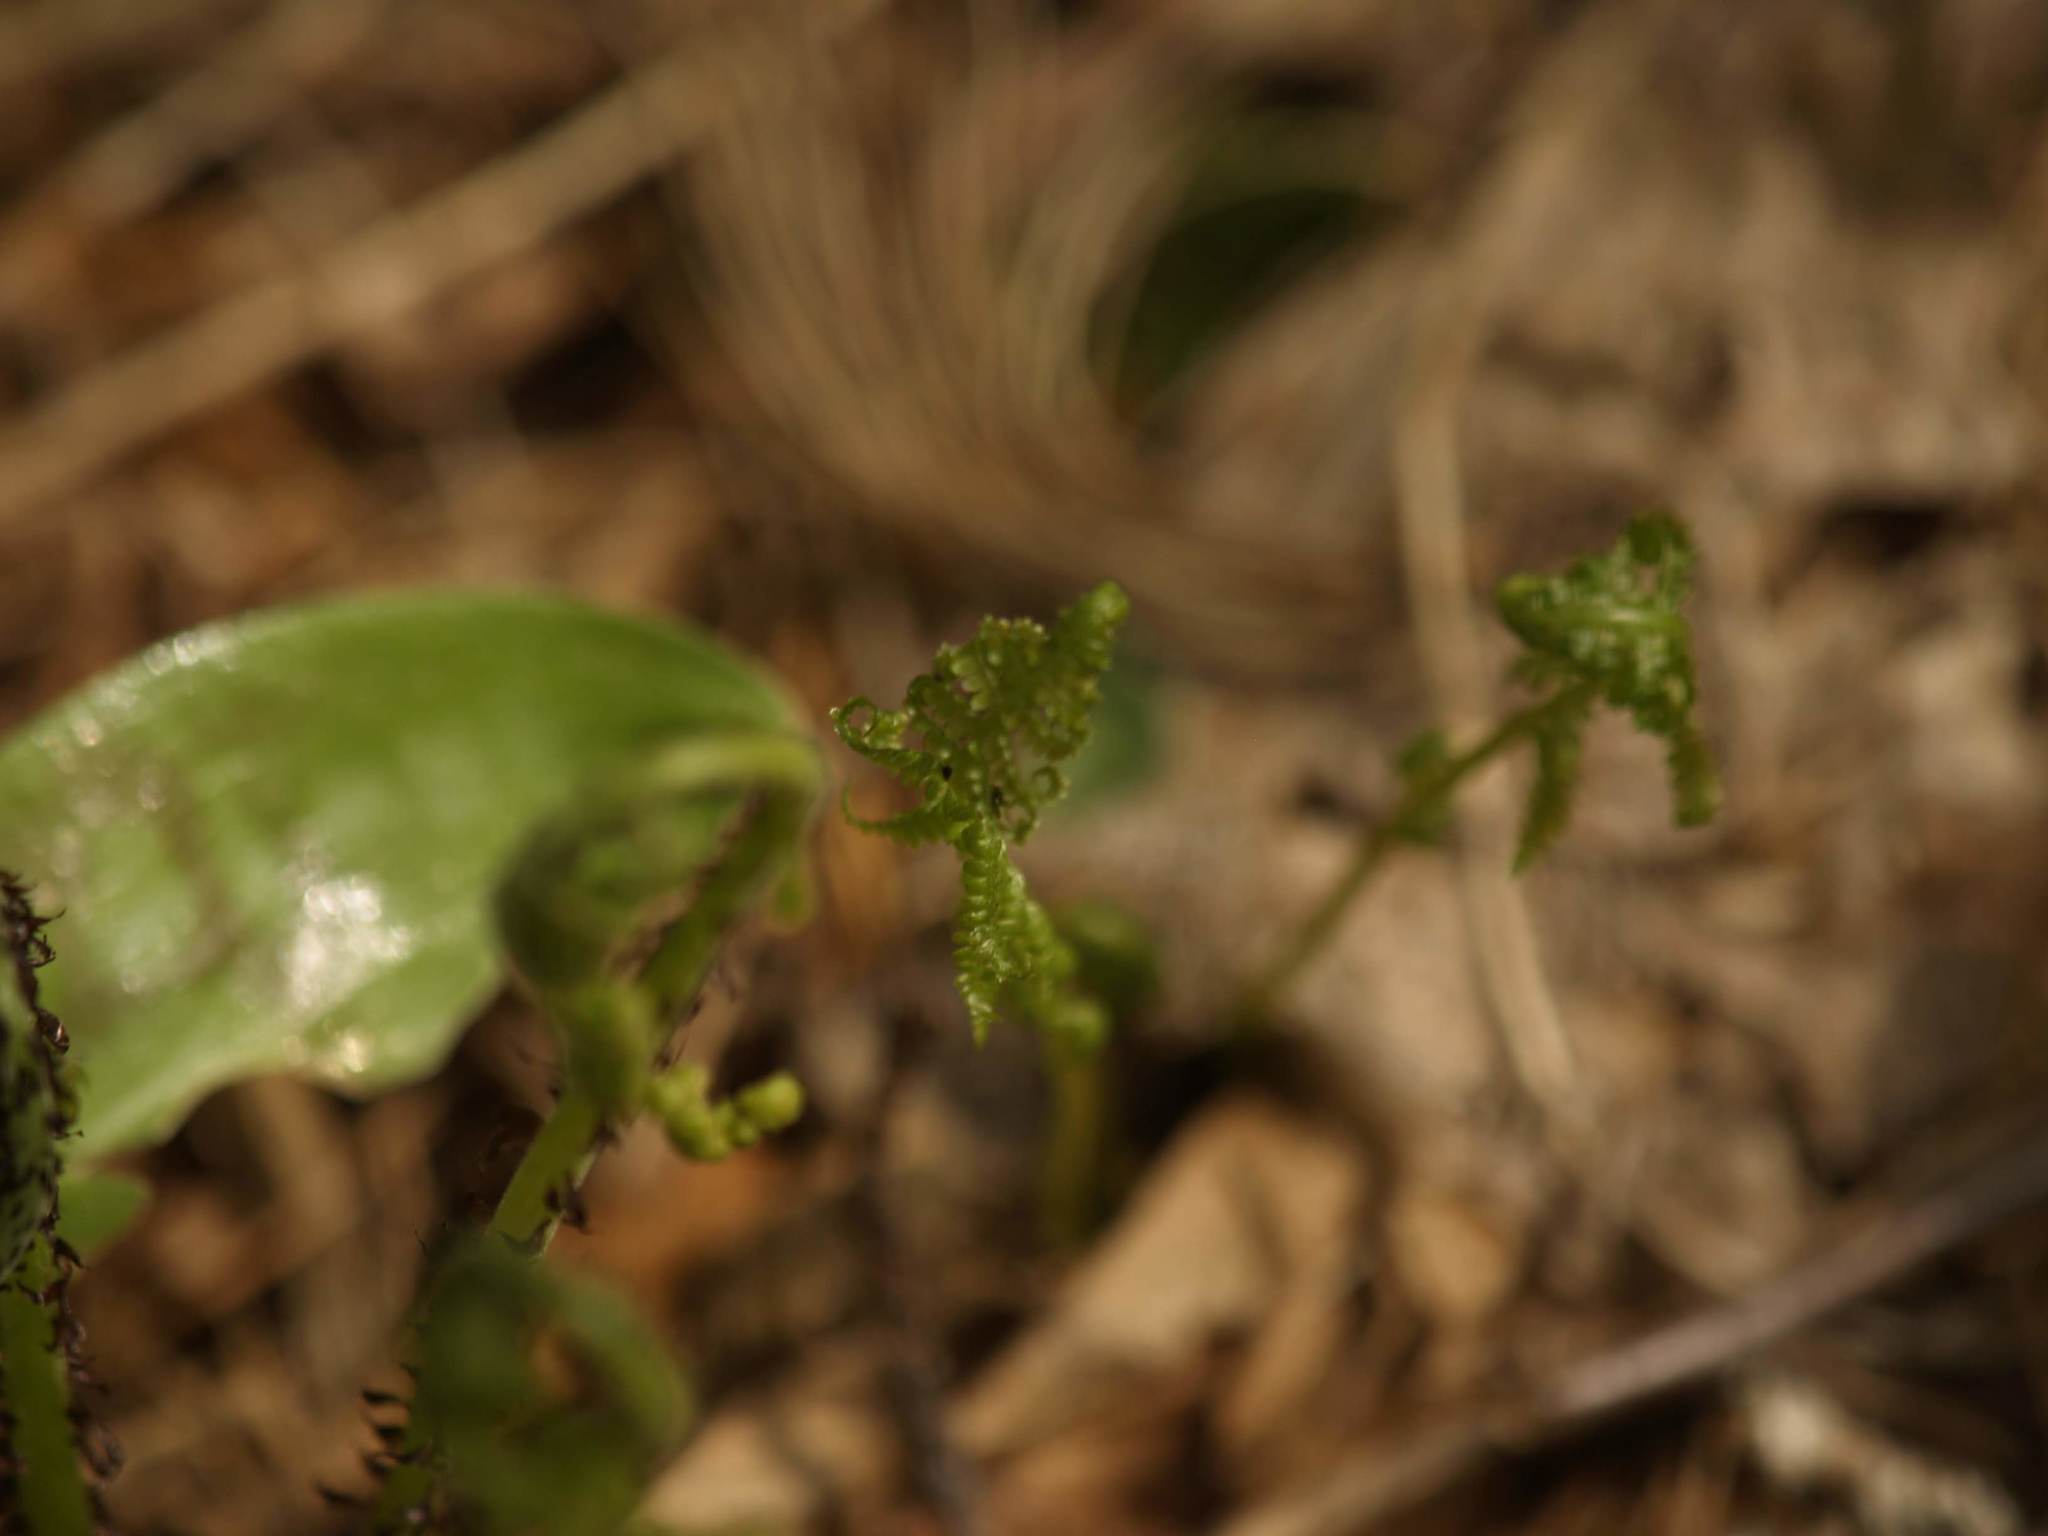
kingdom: Plantae
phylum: Tracheophyta
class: Polypodiopsida
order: Polypodiales
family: Athyriaceae
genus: Athyrium
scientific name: Athyrium angustum
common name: Northern lady fern
